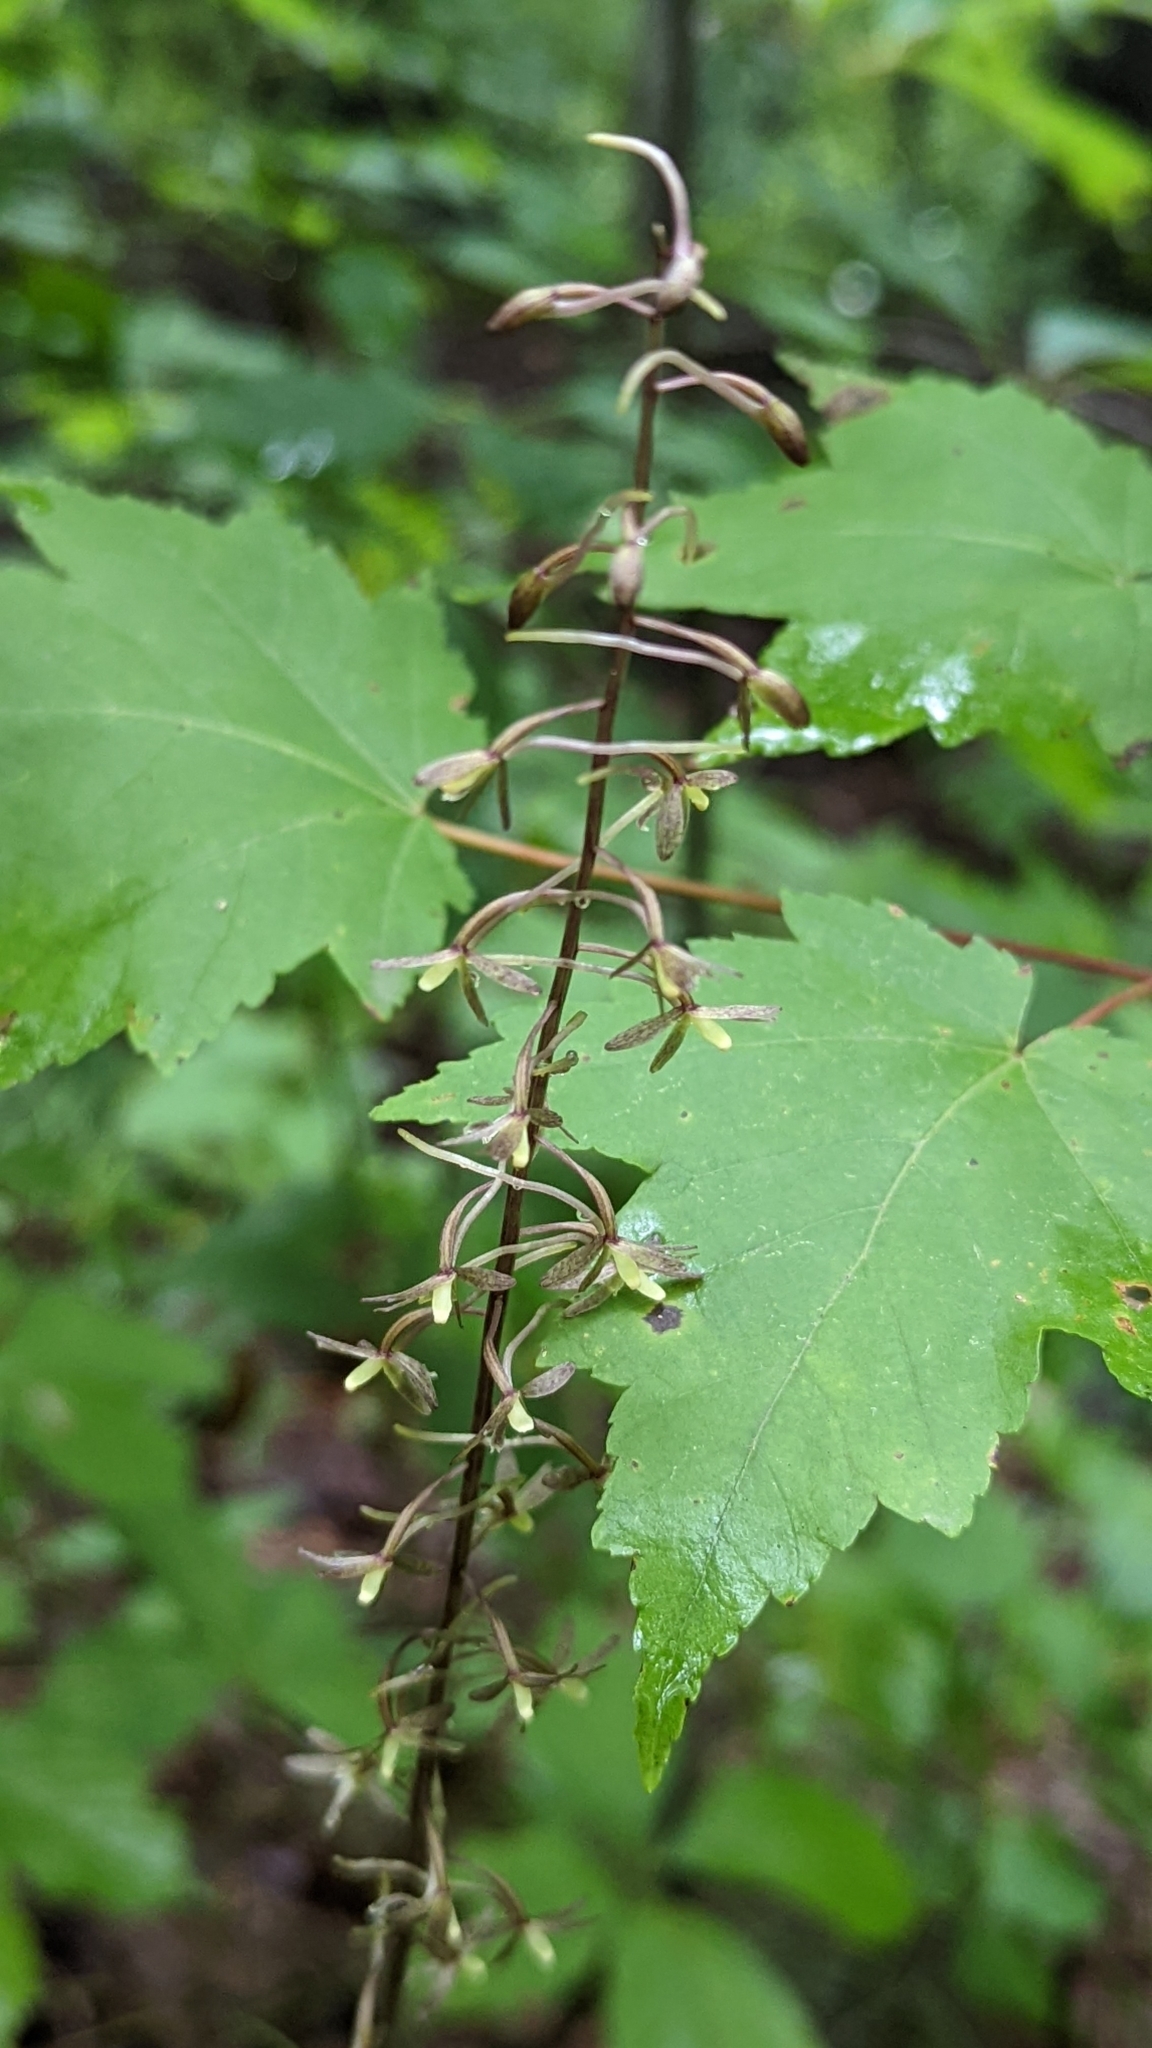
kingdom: Plantae
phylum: Tracheophyta
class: Liliopsida
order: Asparagales
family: Orchidaceae
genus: Tipularia
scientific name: Tipularia discolor
